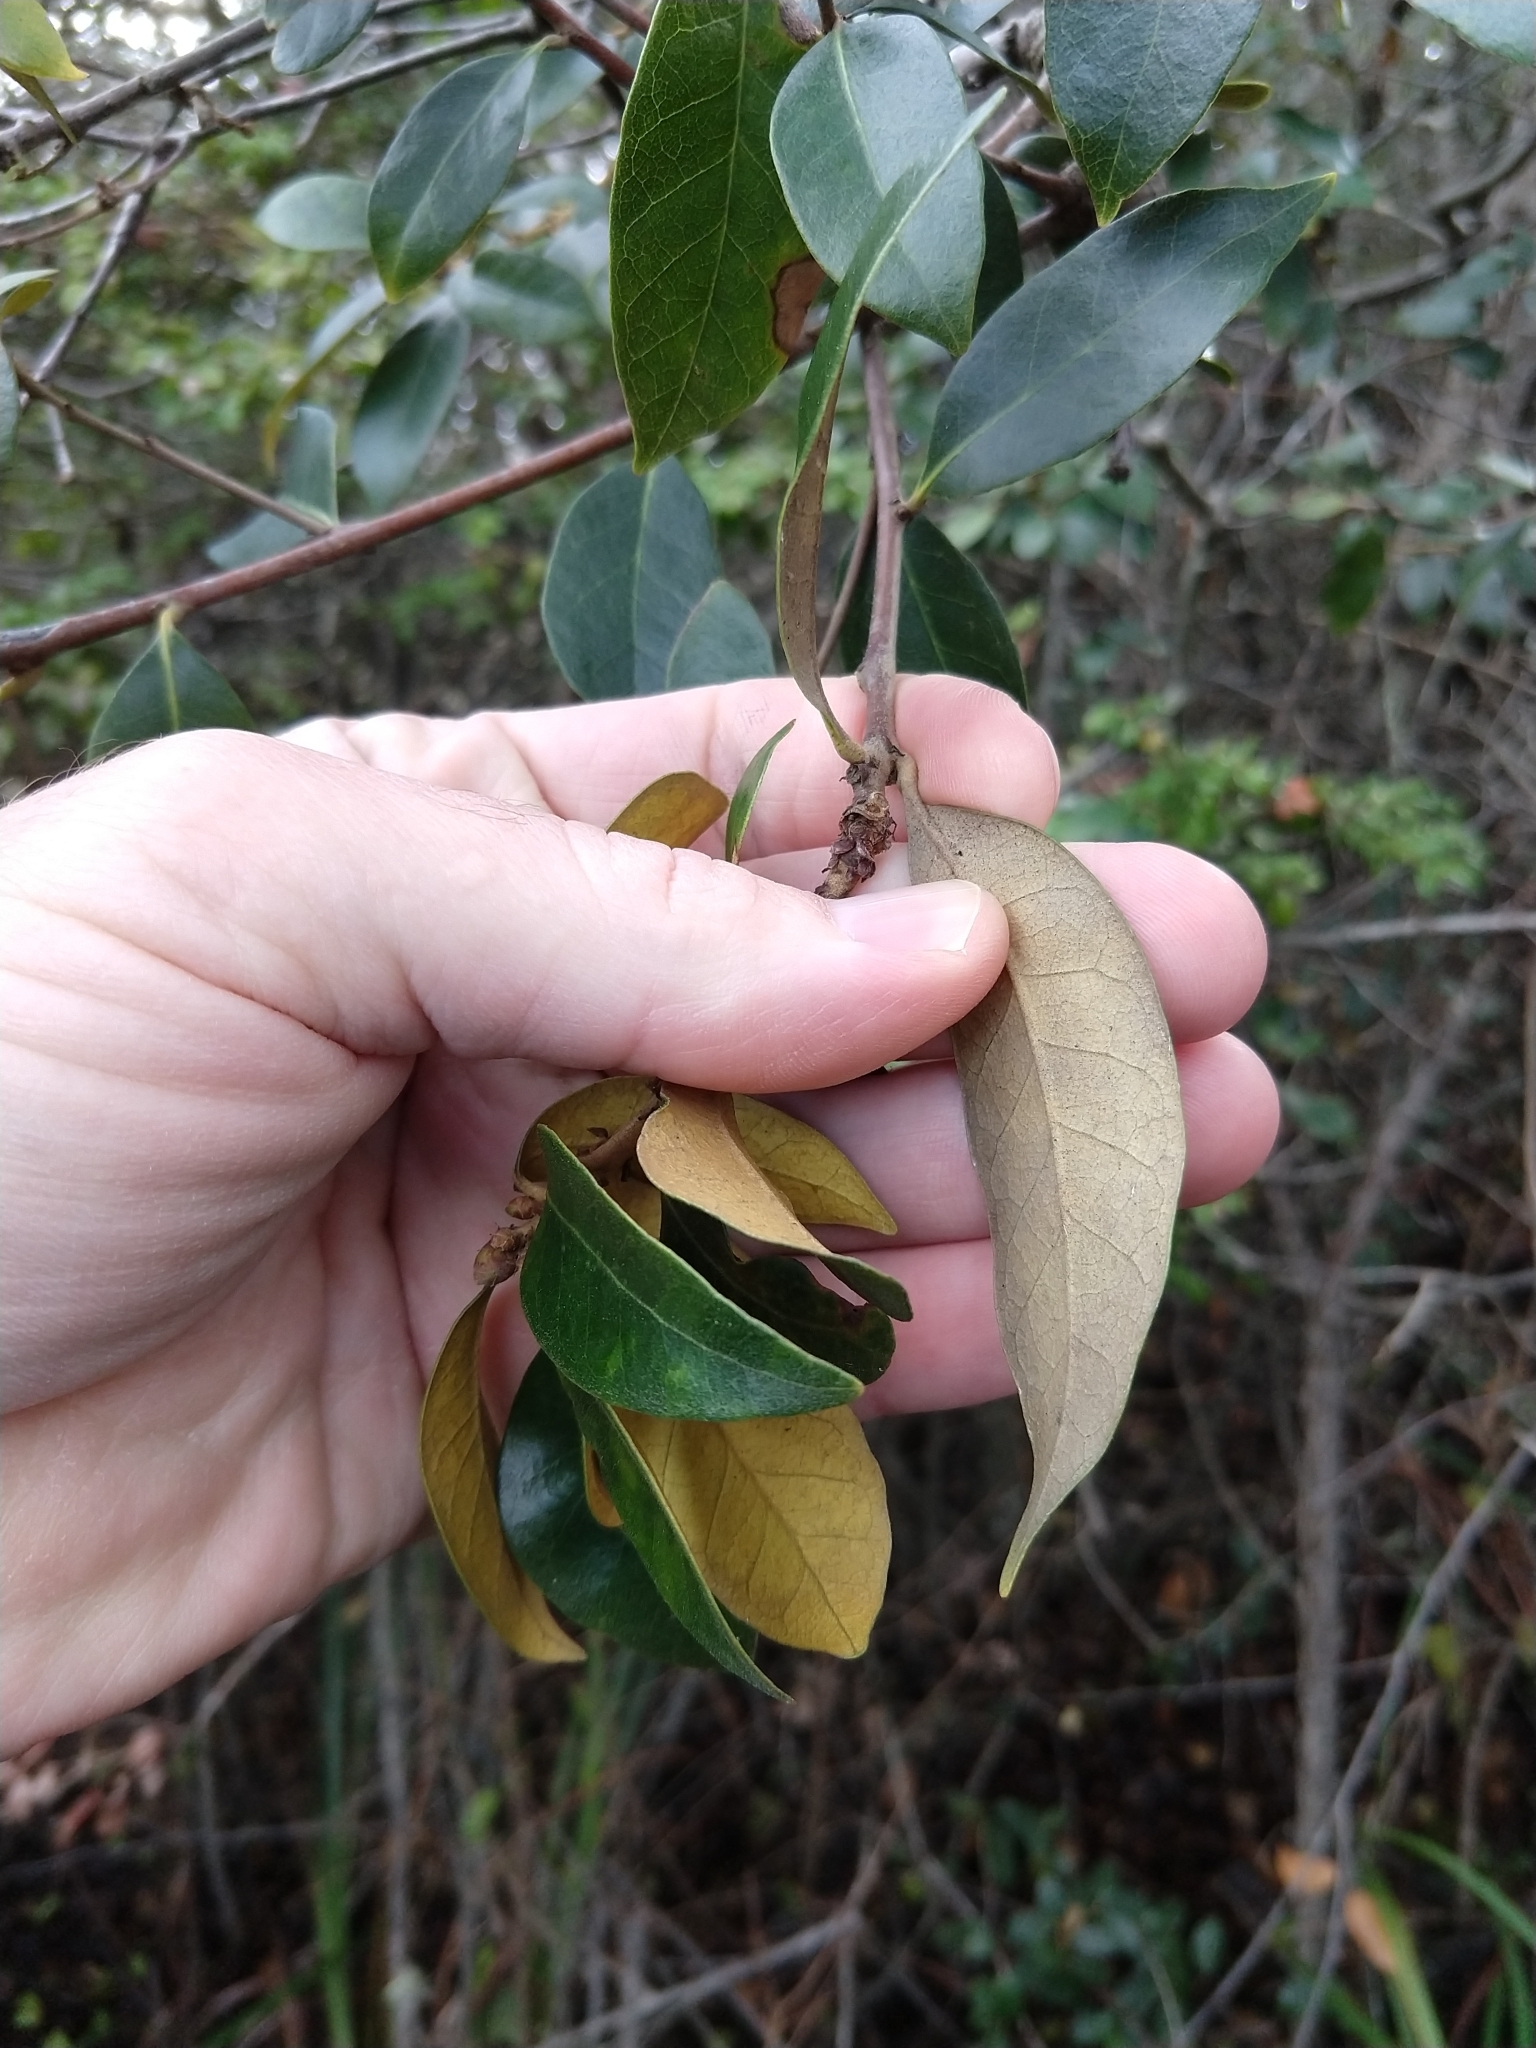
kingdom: Plantae
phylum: Tracheophyta
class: Magnoliopsida
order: Fagales
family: Fagaceae
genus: Chrysolepis
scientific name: Chrysolepis chrysophylla
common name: Giant chinquapin
